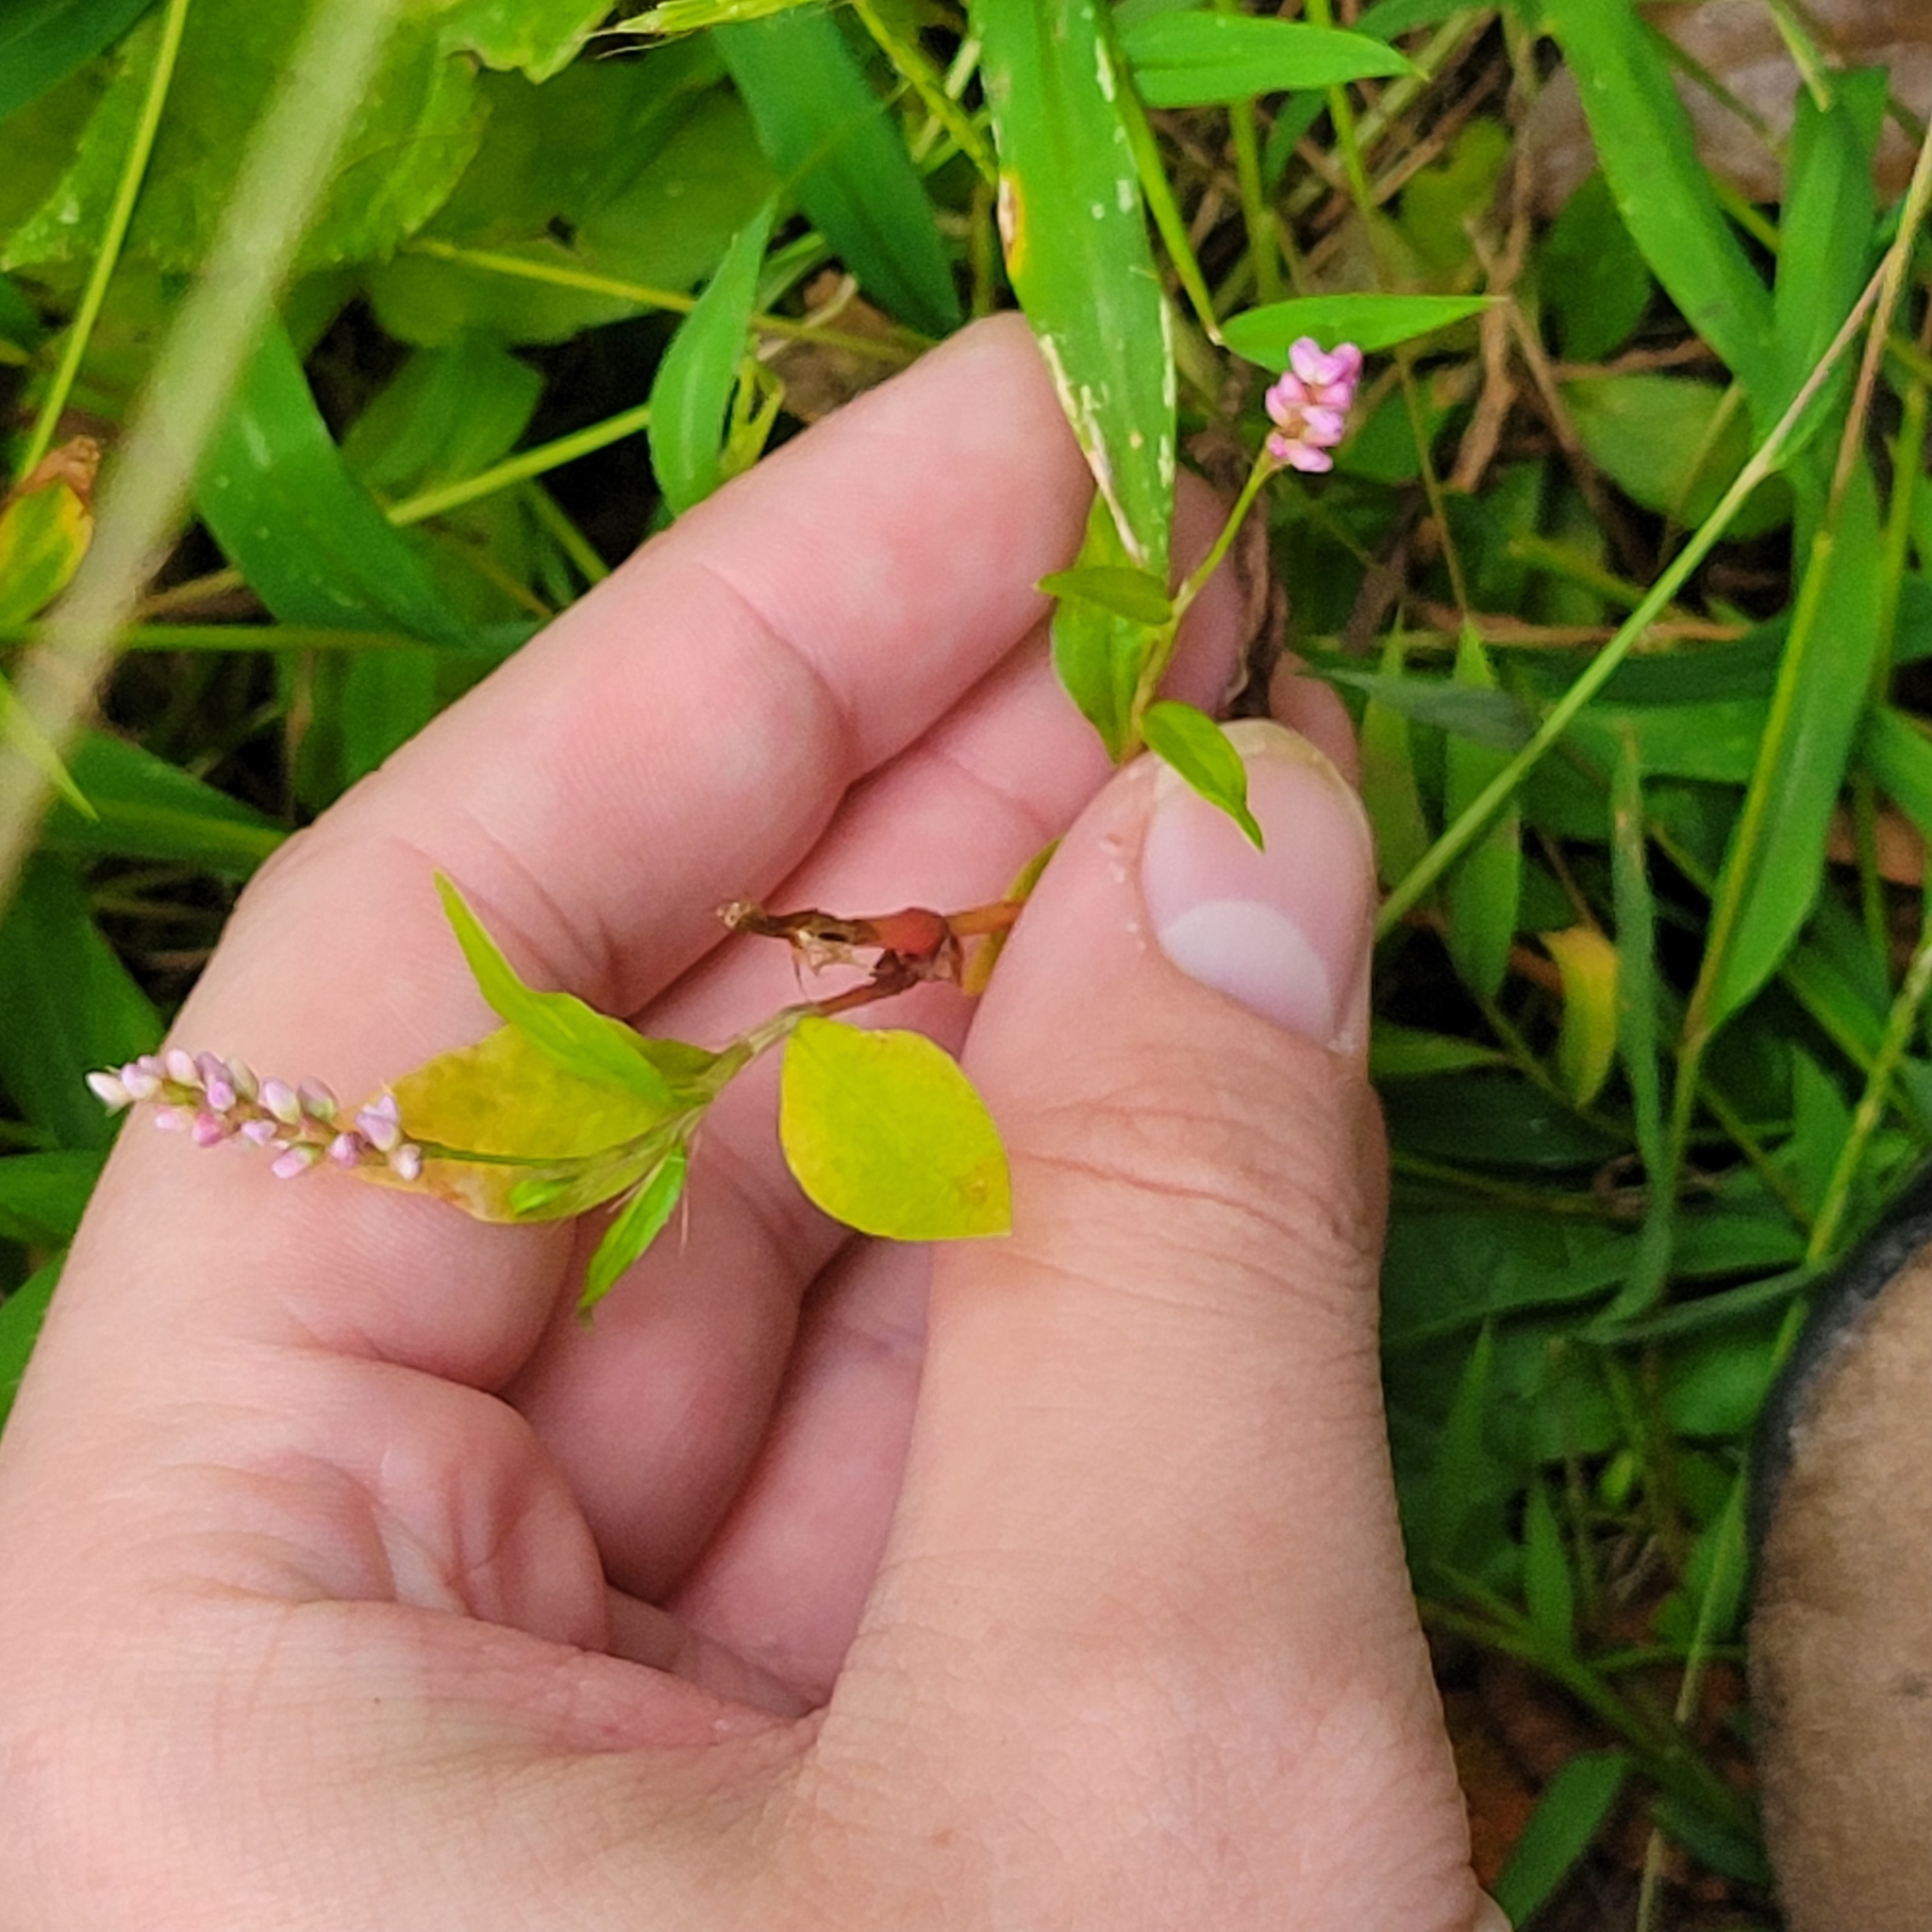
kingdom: Plantae
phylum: Tracheophyta
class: Magnoliopsida
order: Caryophyllales
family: Polygonaceae
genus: Persicaria
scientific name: Persicaria longiseta
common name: Bristly lady's-thumb
